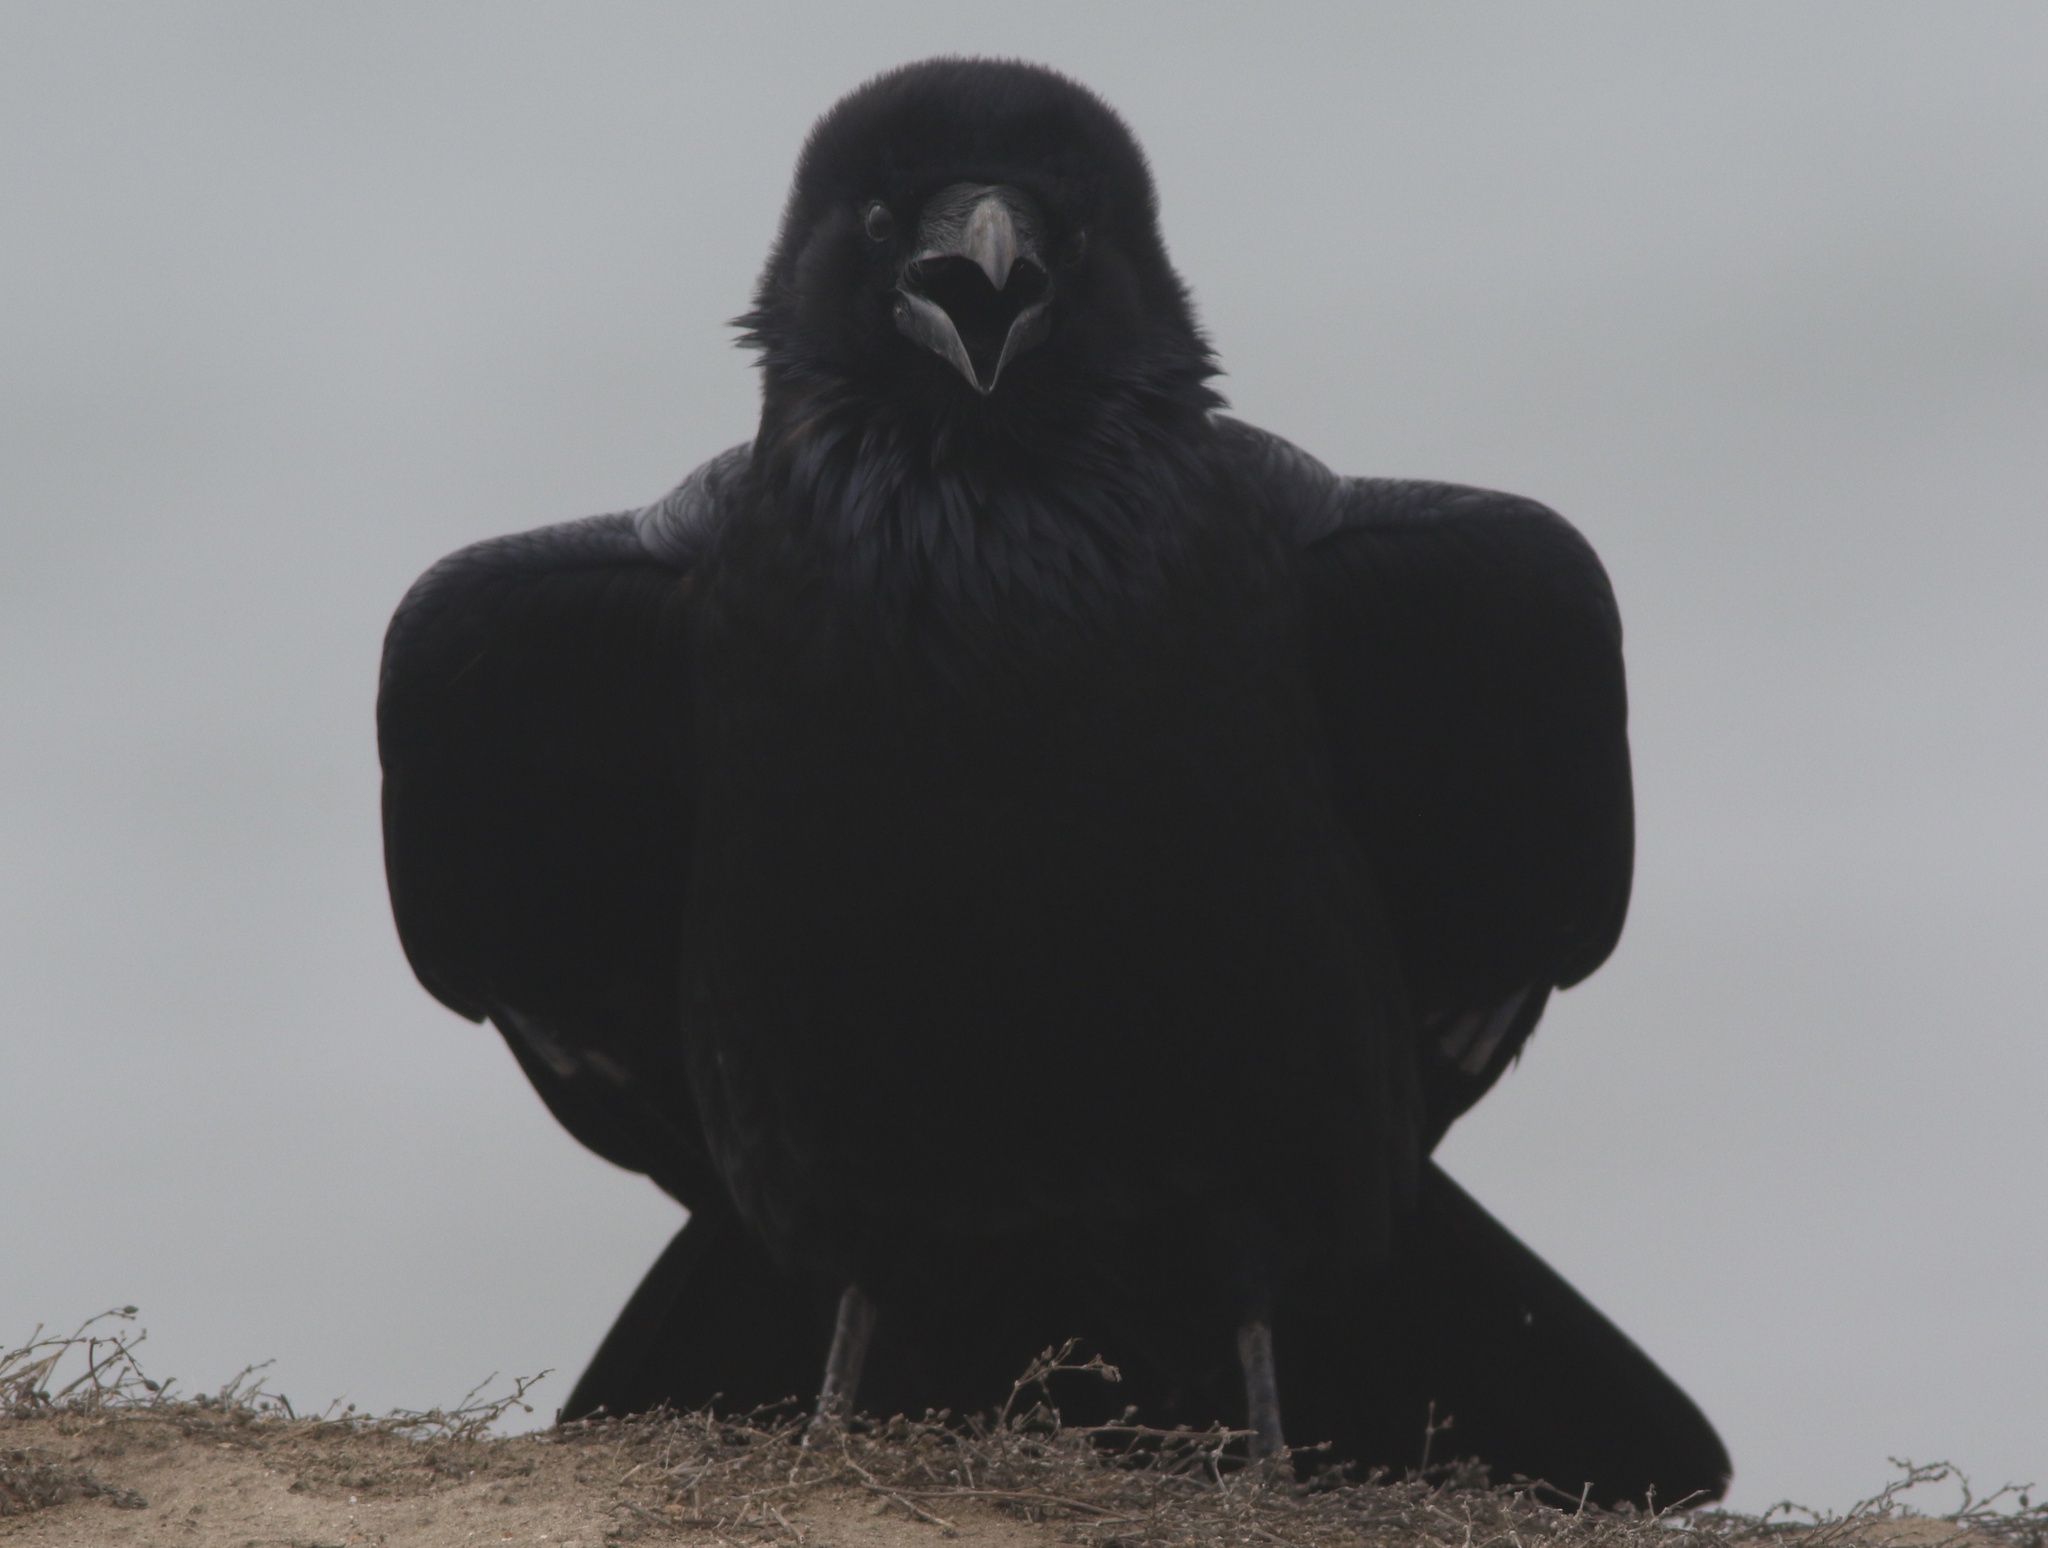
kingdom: Animalia
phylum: Chordata
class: Aves
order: Passeriformes
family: Corvidae
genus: Corvus
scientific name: Corvus corax
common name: Common raven
